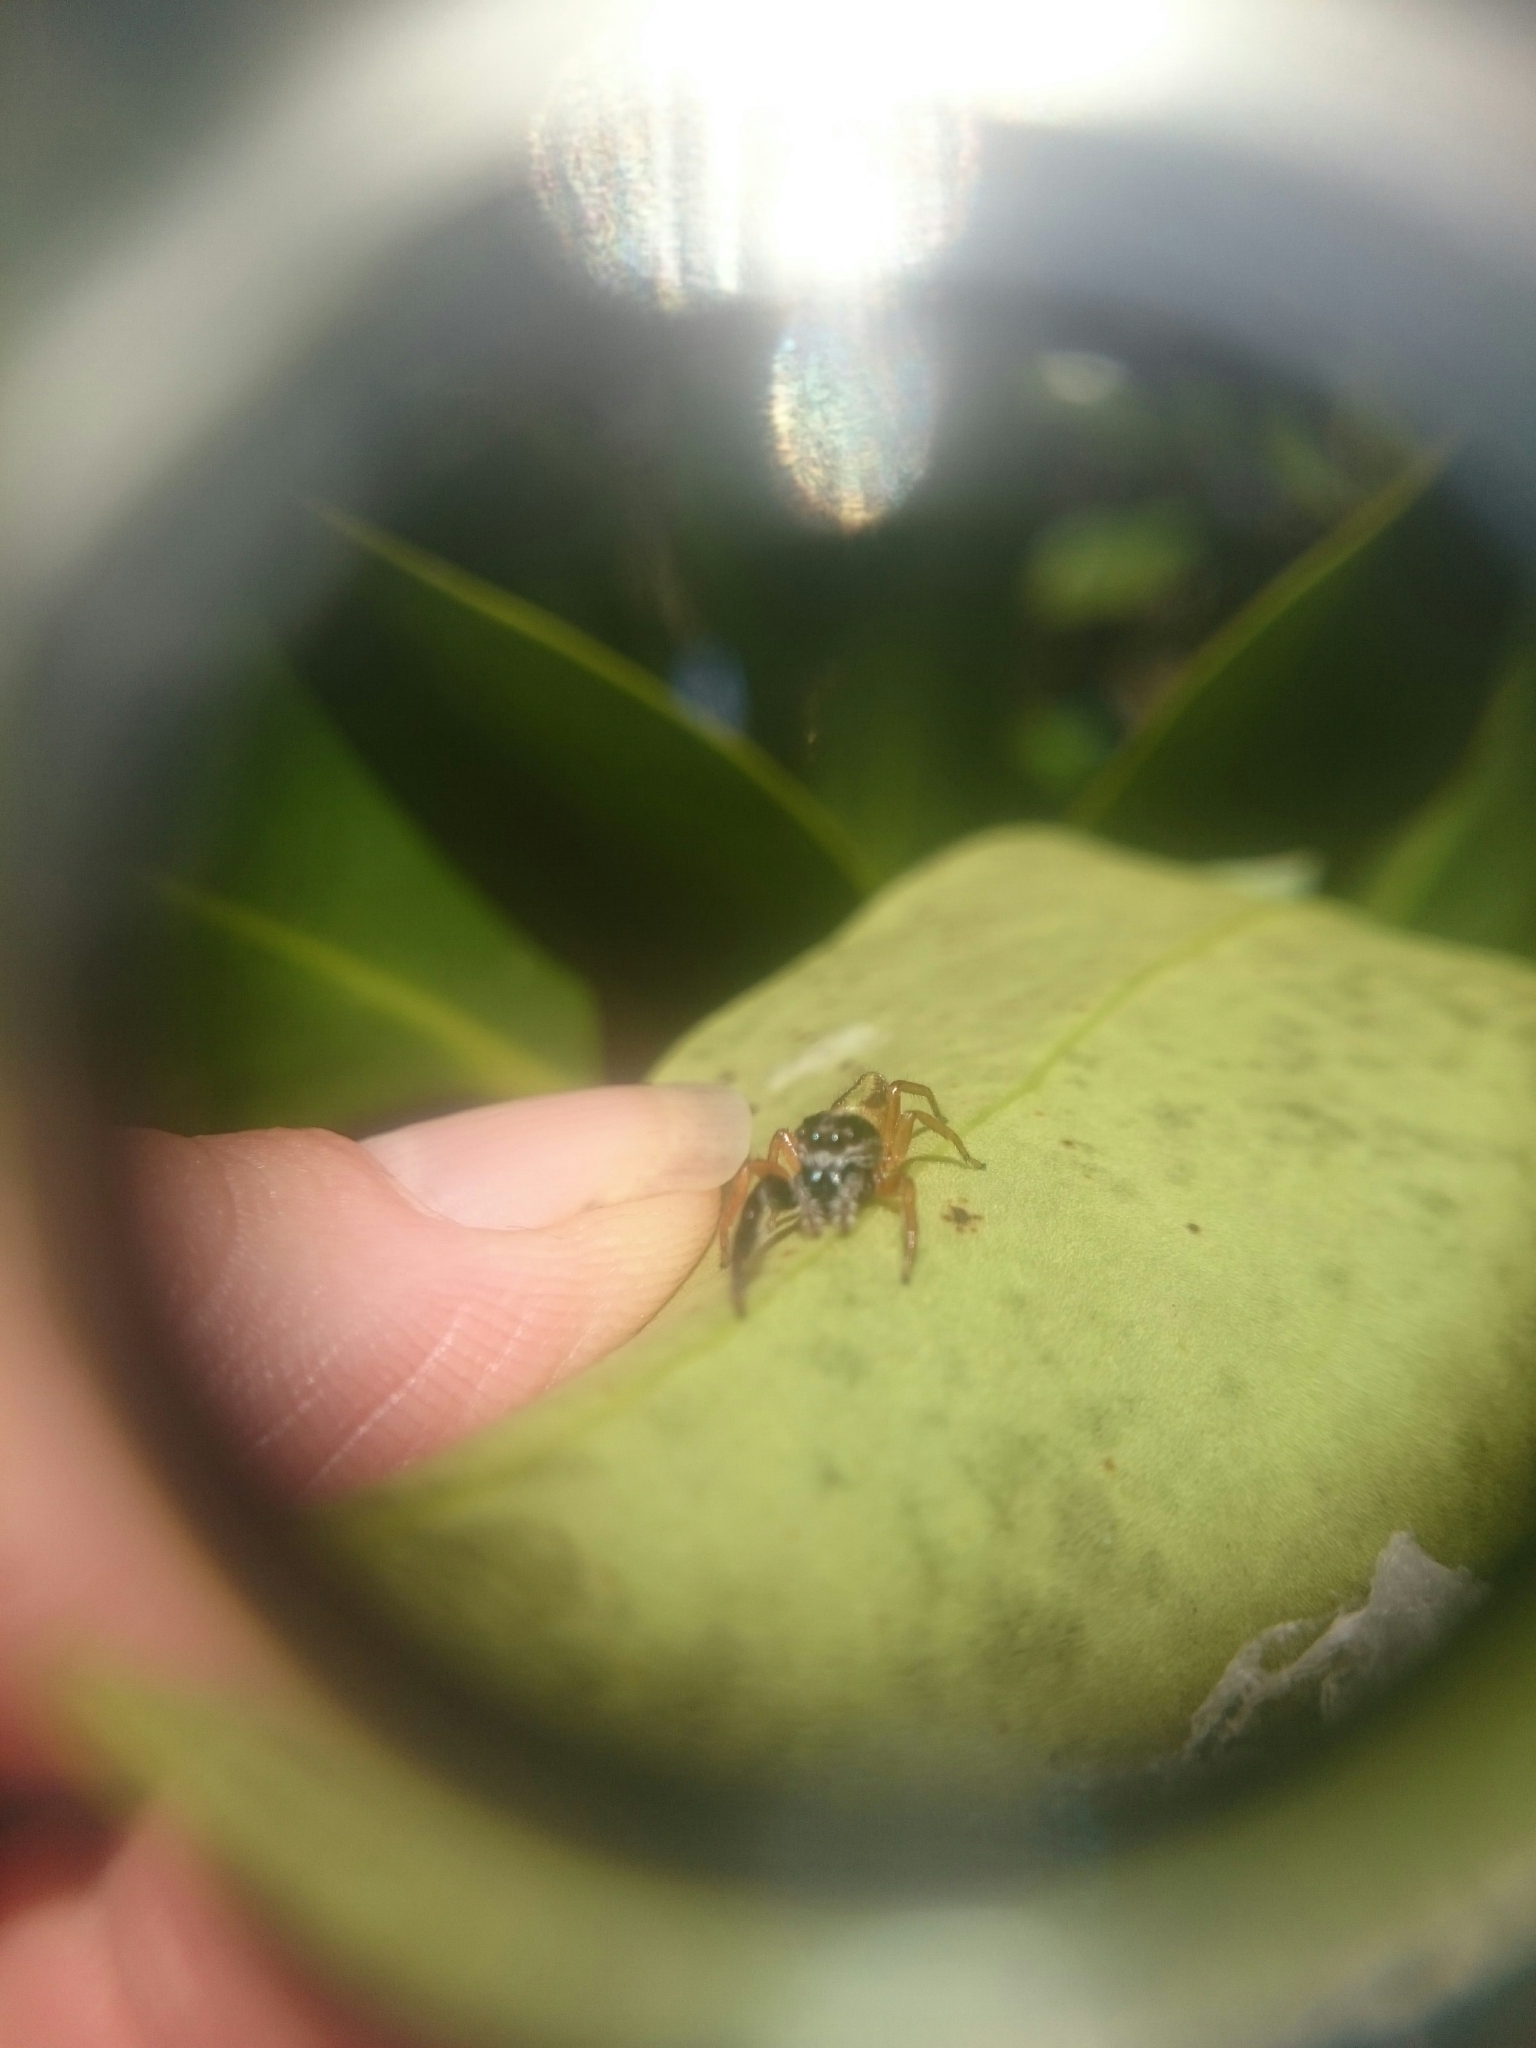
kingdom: Animalia
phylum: Arthropoda
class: Arachnida
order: Araneae
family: Salticidae
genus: Trite
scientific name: Trite planiceps
